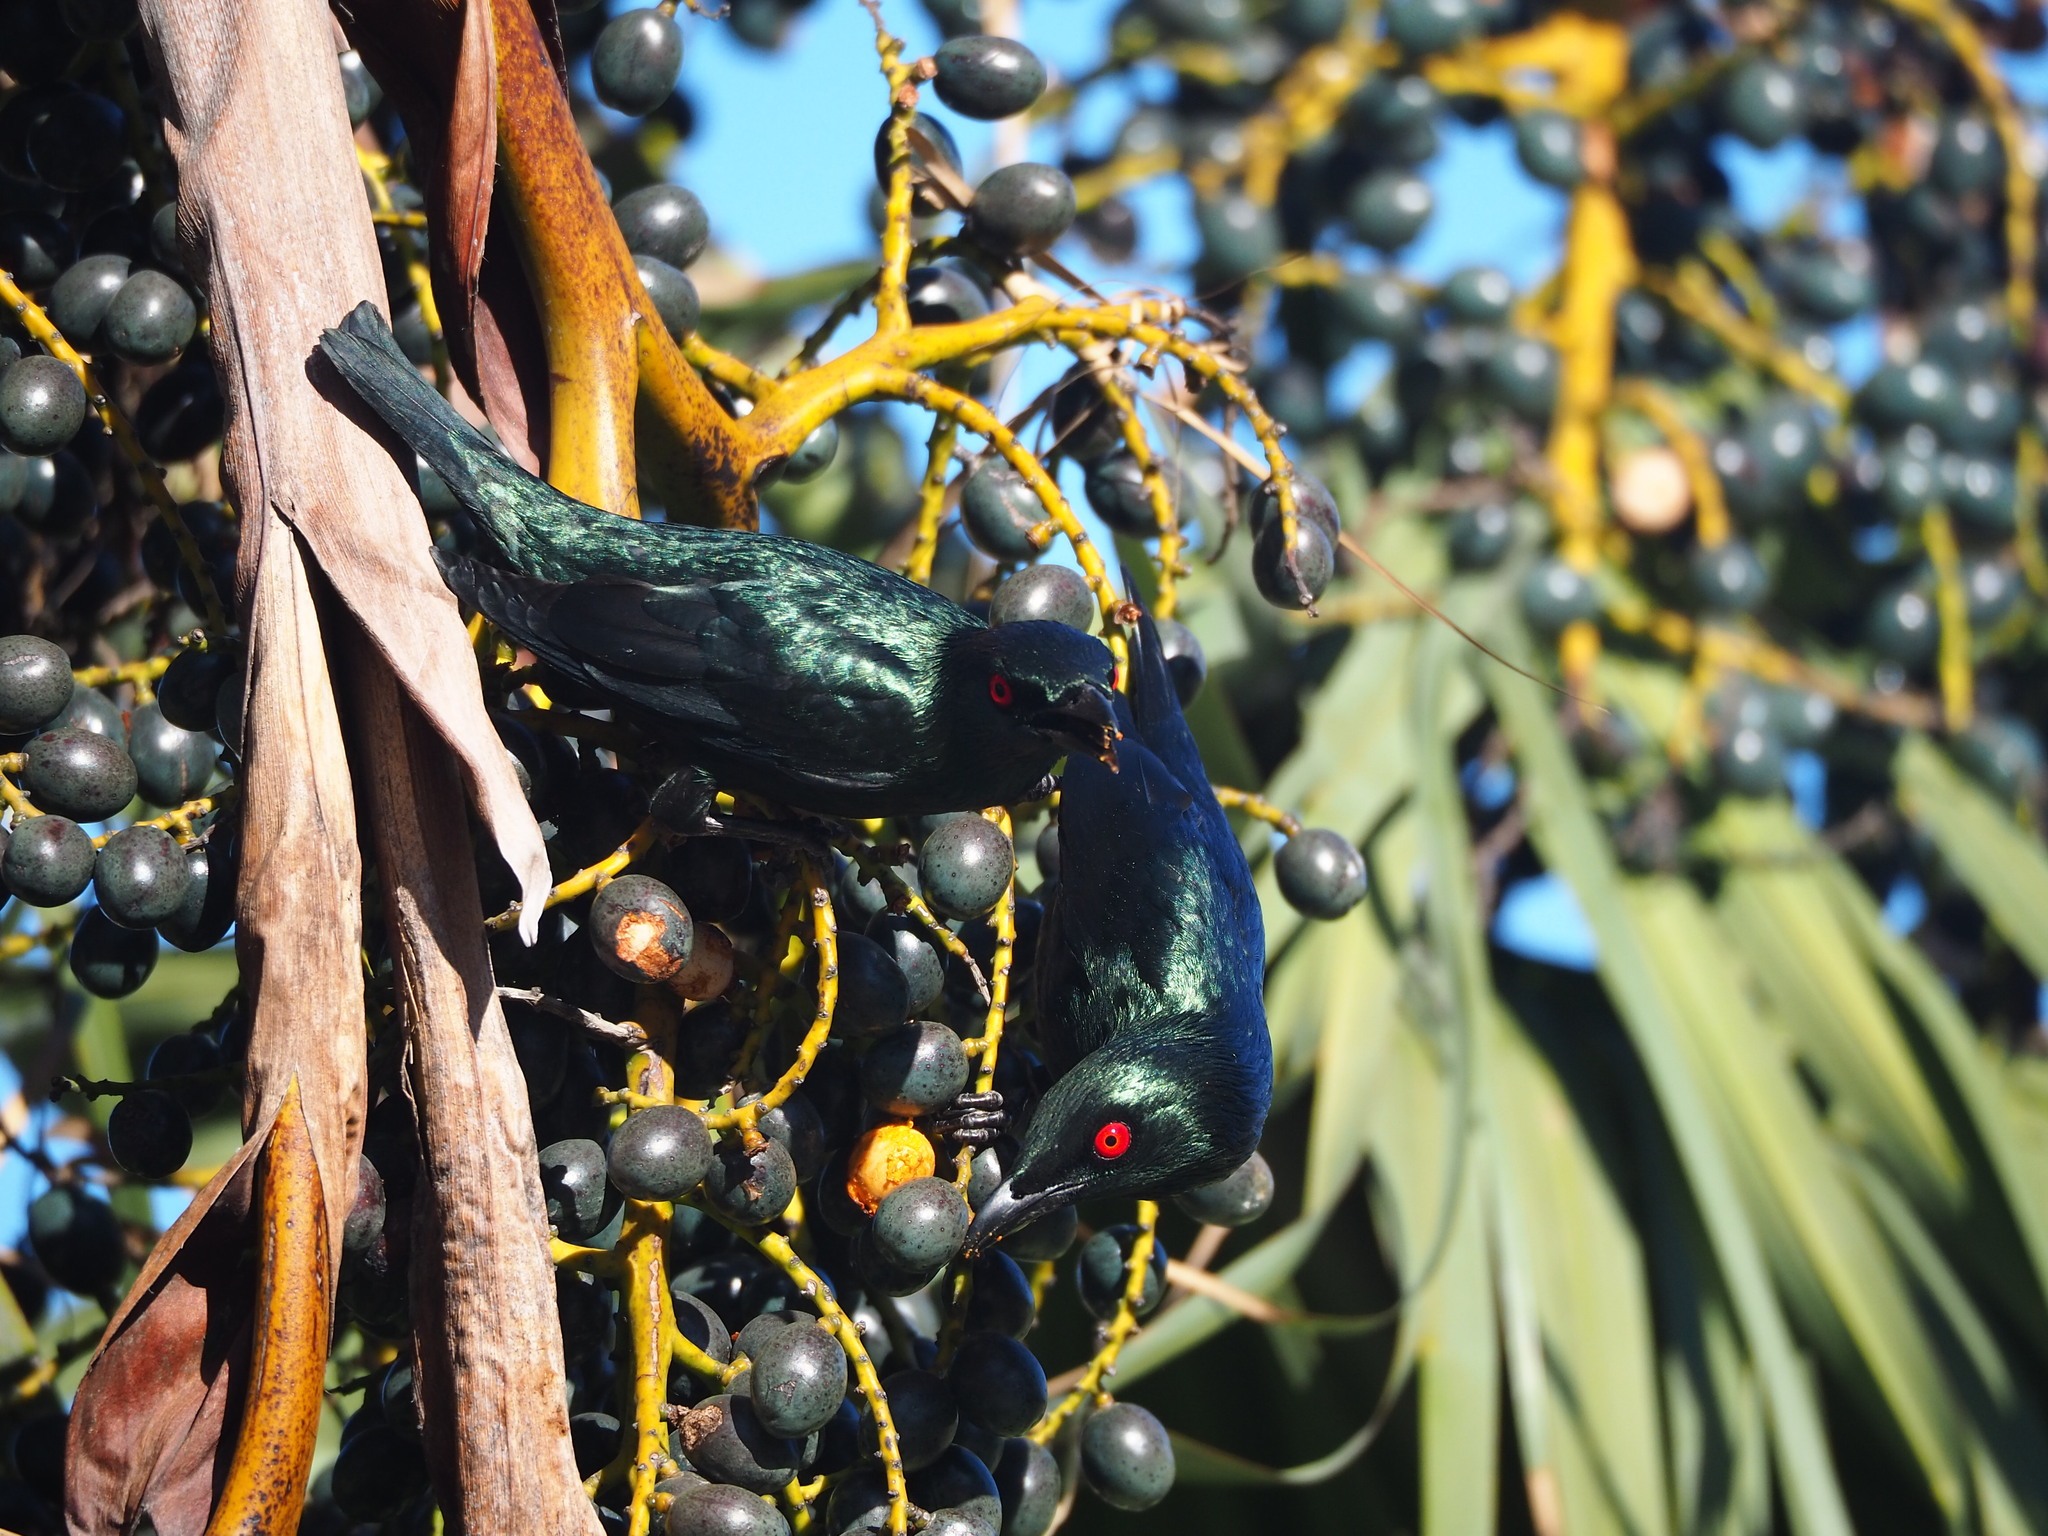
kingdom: Animalia
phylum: Chordata
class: Aves
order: Passeriformes
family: Sturnidae
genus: Aplonis
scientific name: Aplonis panayensis
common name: Asian glossy starling
